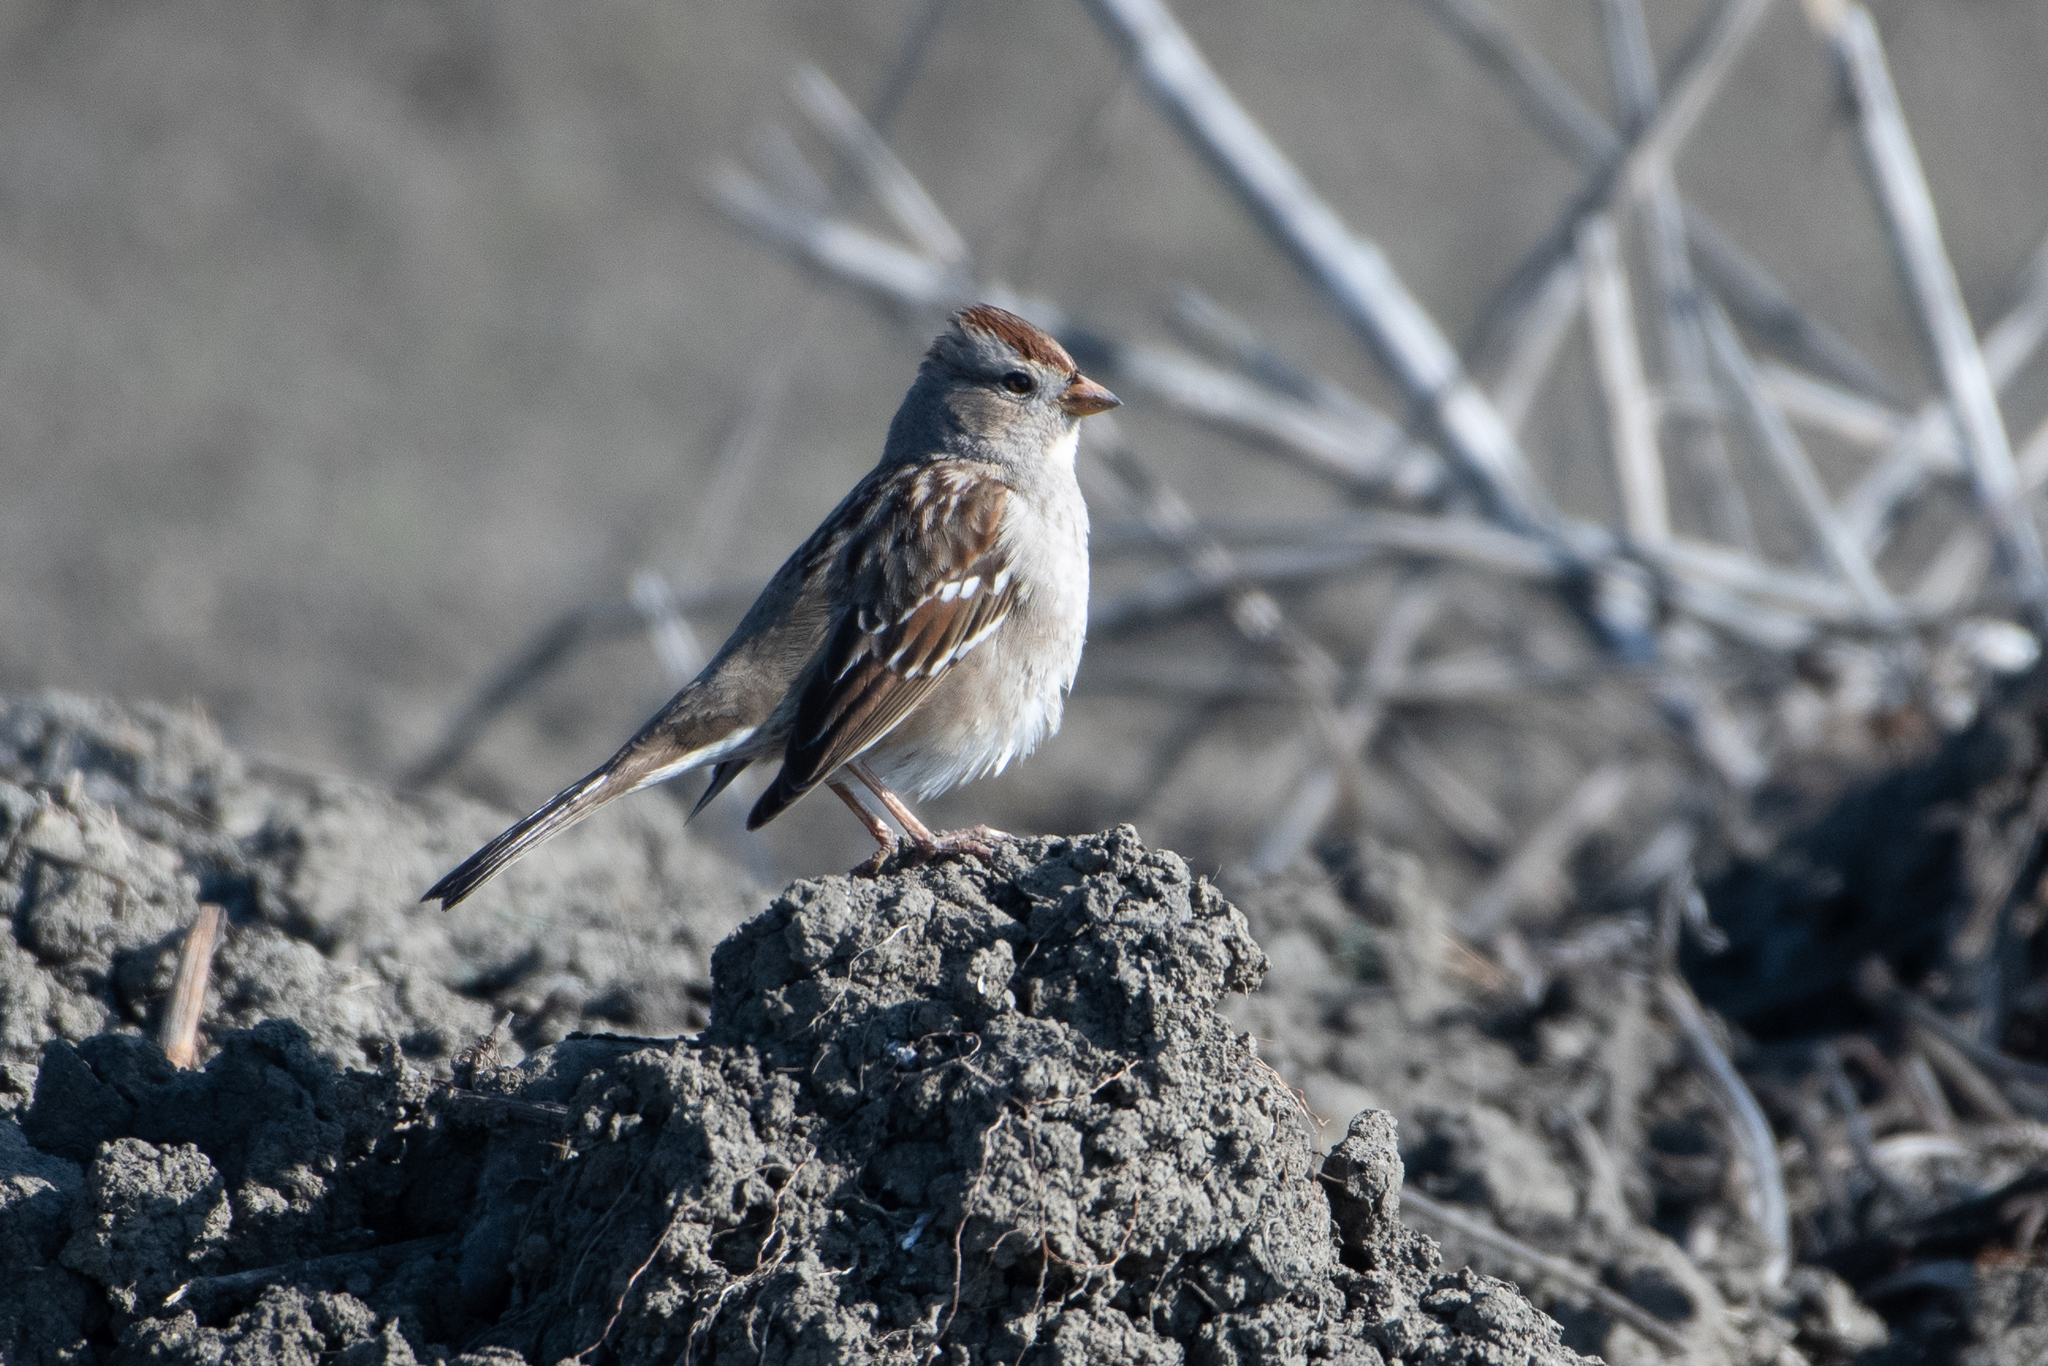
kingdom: Animalia
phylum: Chordata
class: Aves
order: Passeriformes
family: Passerellidae
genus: Zonotrichia
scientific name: Zonotrichia leucophrys
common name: White-crowned sparrow
